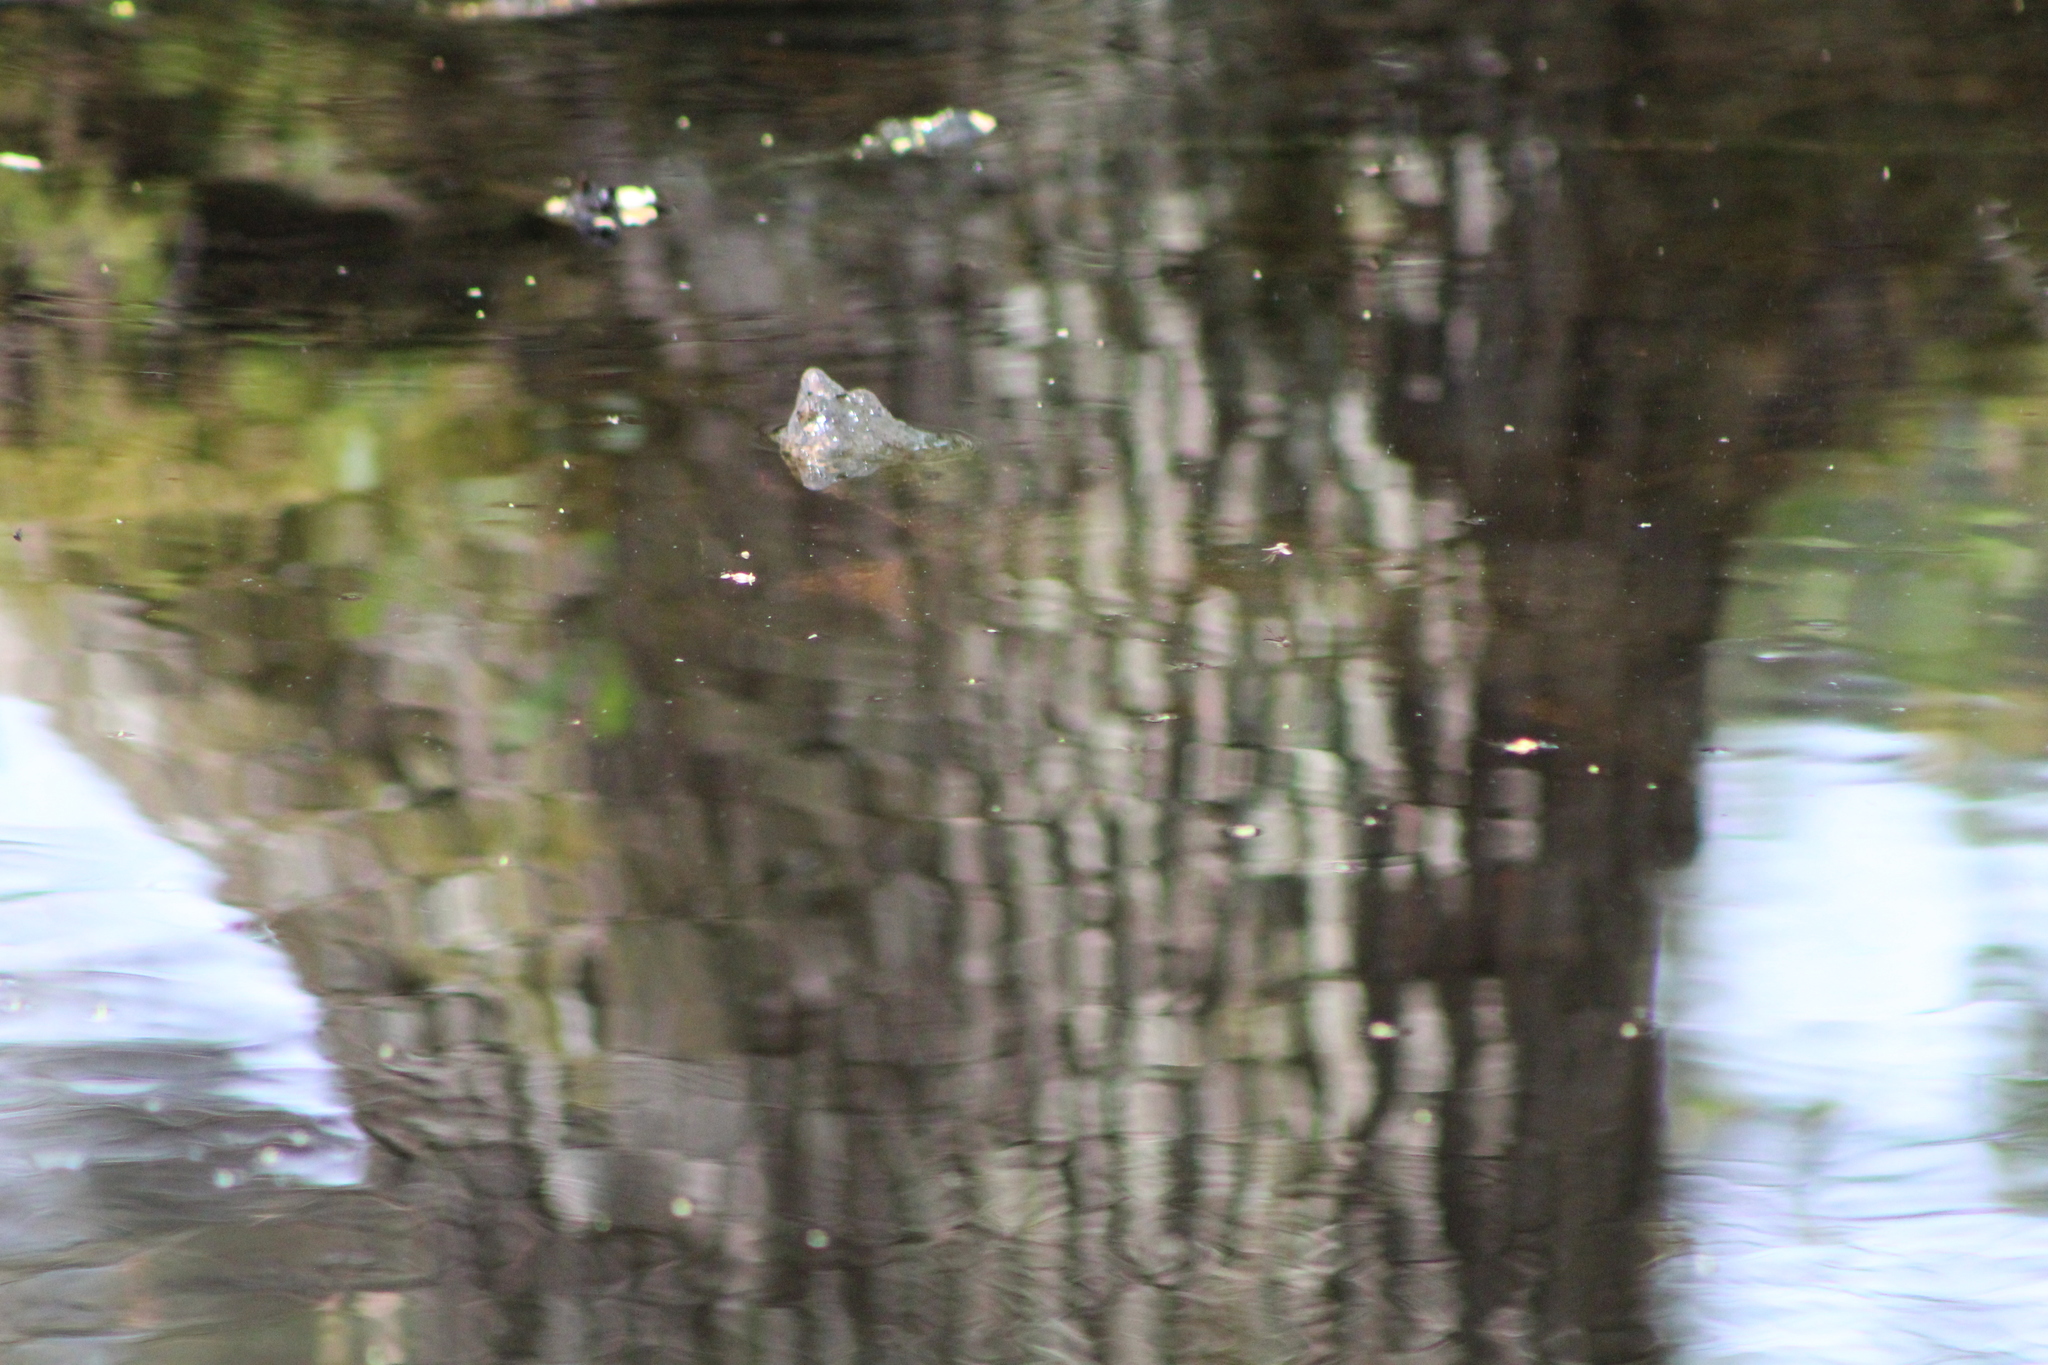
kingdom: Animalia
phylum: Chordata
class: Testudines
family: Chelydridae
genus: Chelydra
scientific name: Chelydra serpentina
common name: Common snapping turtle
